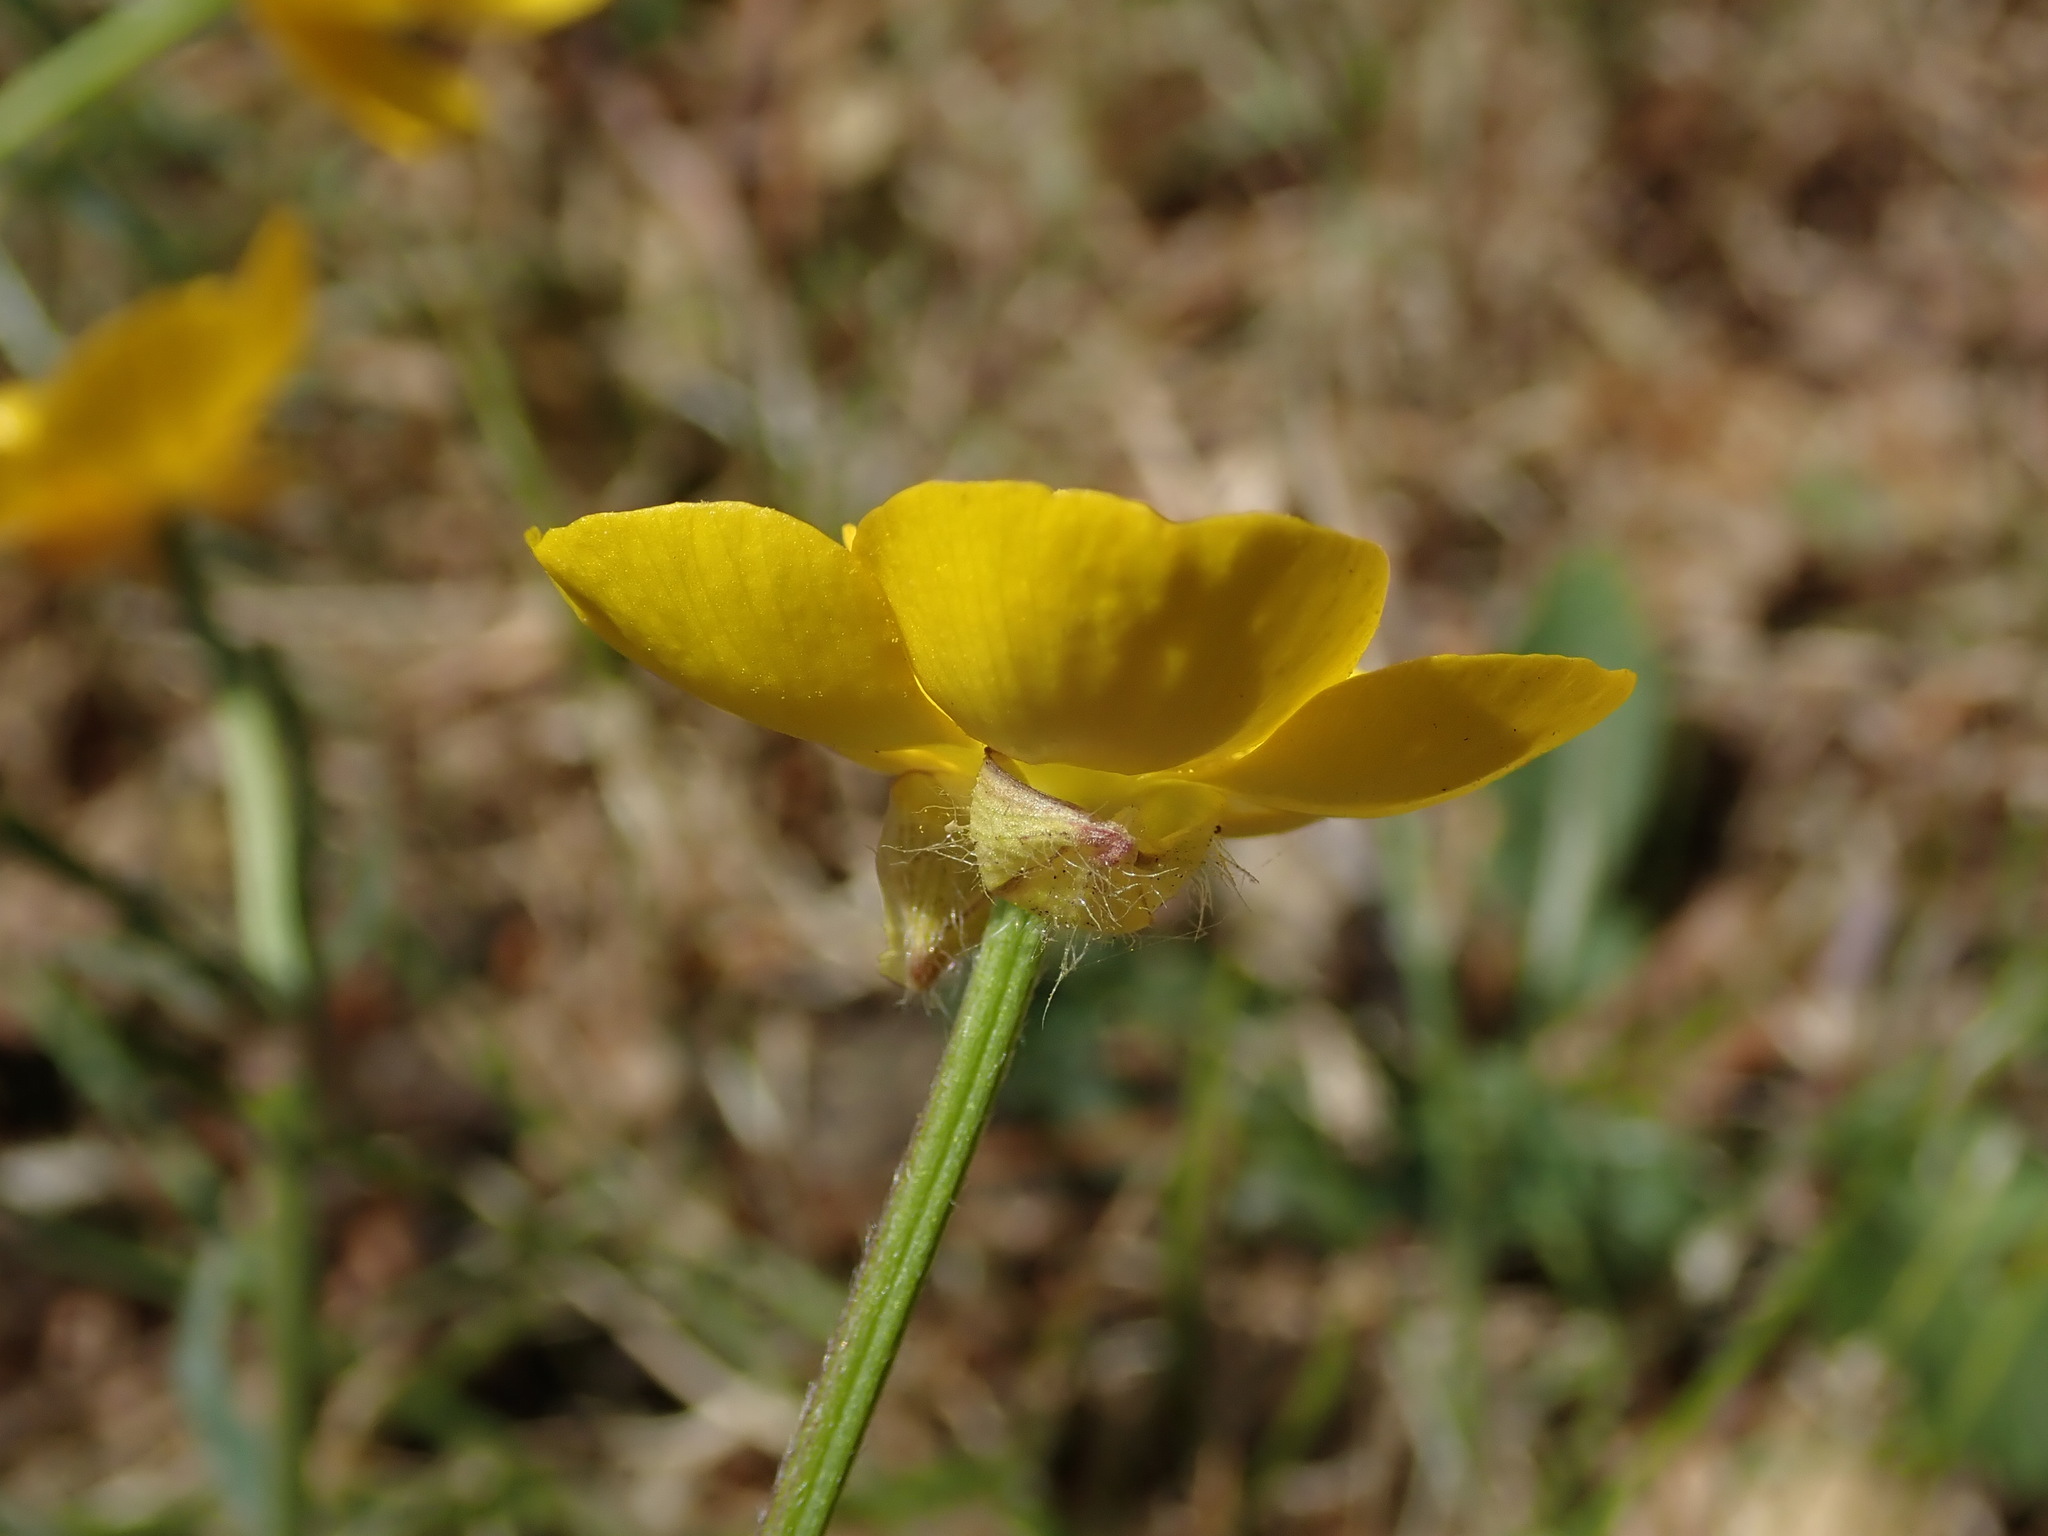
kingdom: Plantae
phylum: Tracheophyta
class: Magnoliopsida
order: Ranunculales
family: Ranunculaceae
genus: Ranunculus
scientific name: Ranunculus bulbosus
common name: Bulbous buttercup
